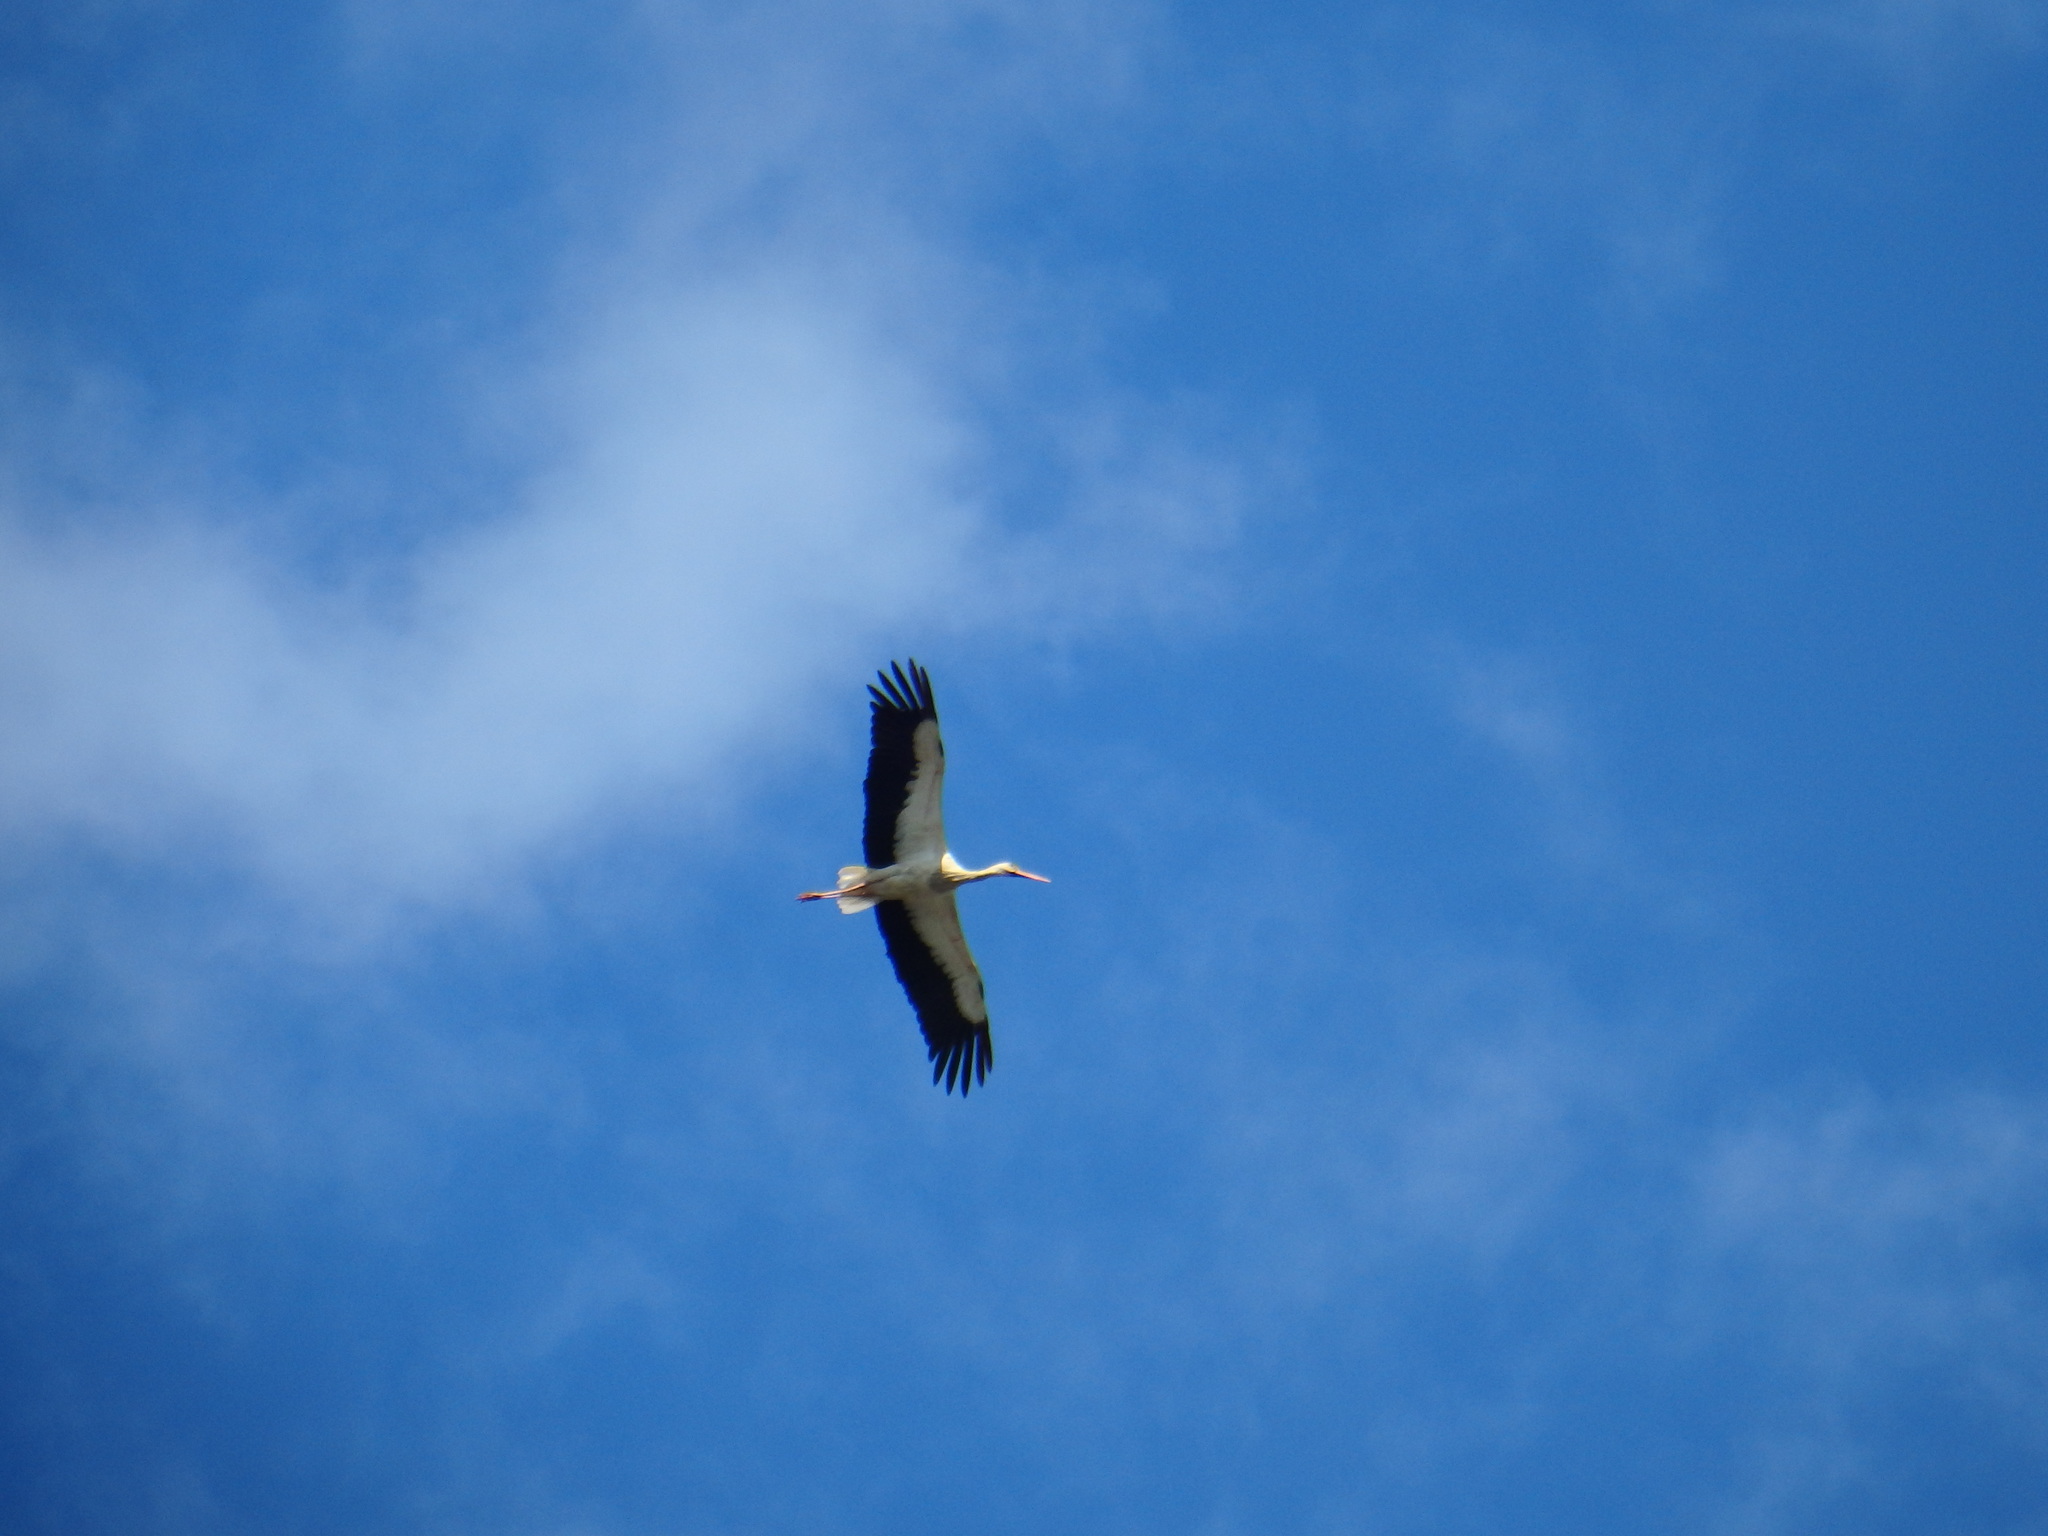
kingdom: Animalia
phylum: Chordata
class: Aves
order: Ciconiiformes
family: Ciconiidae
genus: Ciconia
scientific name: Ciconia ciconia
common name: White stork
